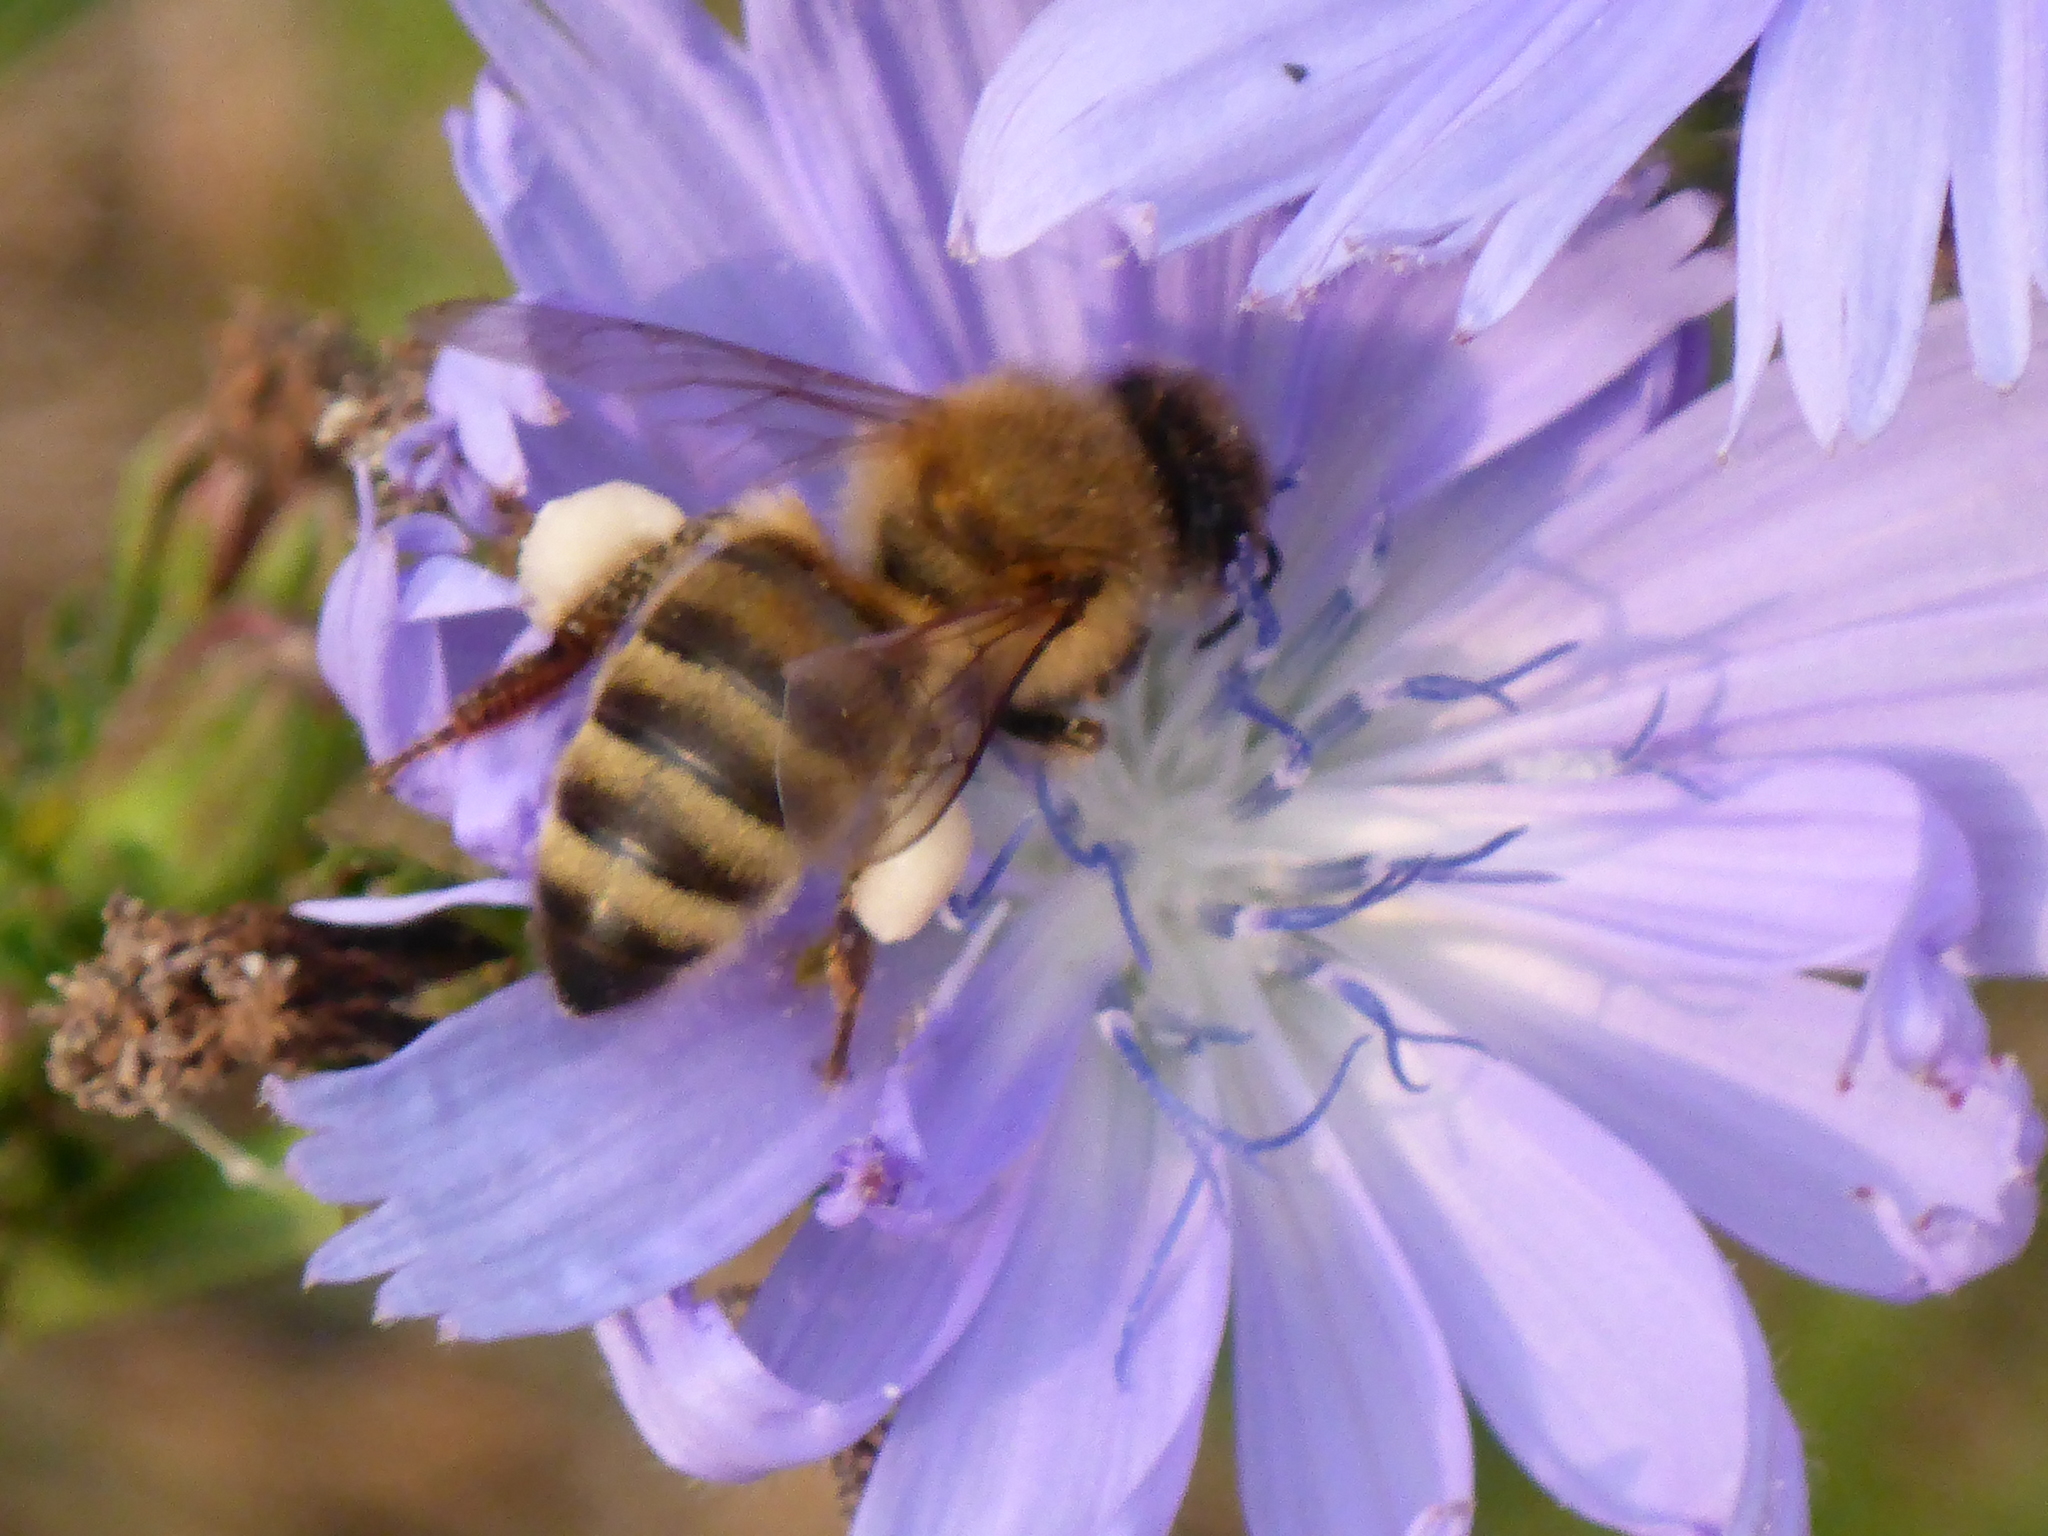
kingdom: Animalia
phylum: Arthropoda
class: Insecta
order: Hymenoptera
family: Apidae
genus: Apis
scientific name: Apis mellifera
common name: Honey bee
